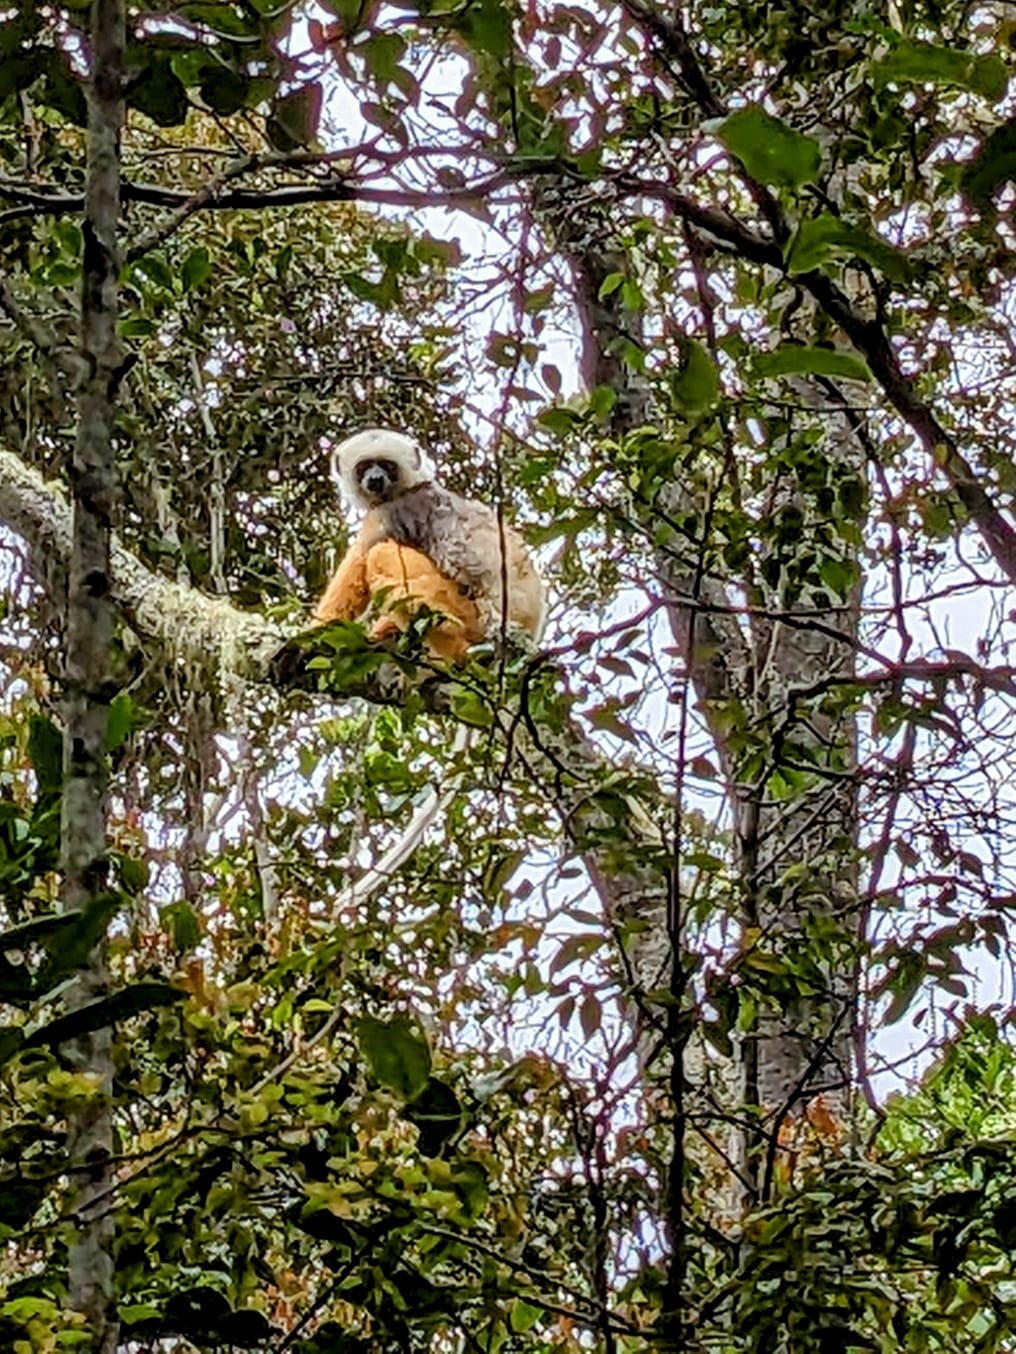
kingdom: Animalia
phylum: Chordata
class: Mammalia
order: Primates
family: Indriidae
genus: Propithecus
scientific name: Propithecus diadema
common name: Diademed sifaka
